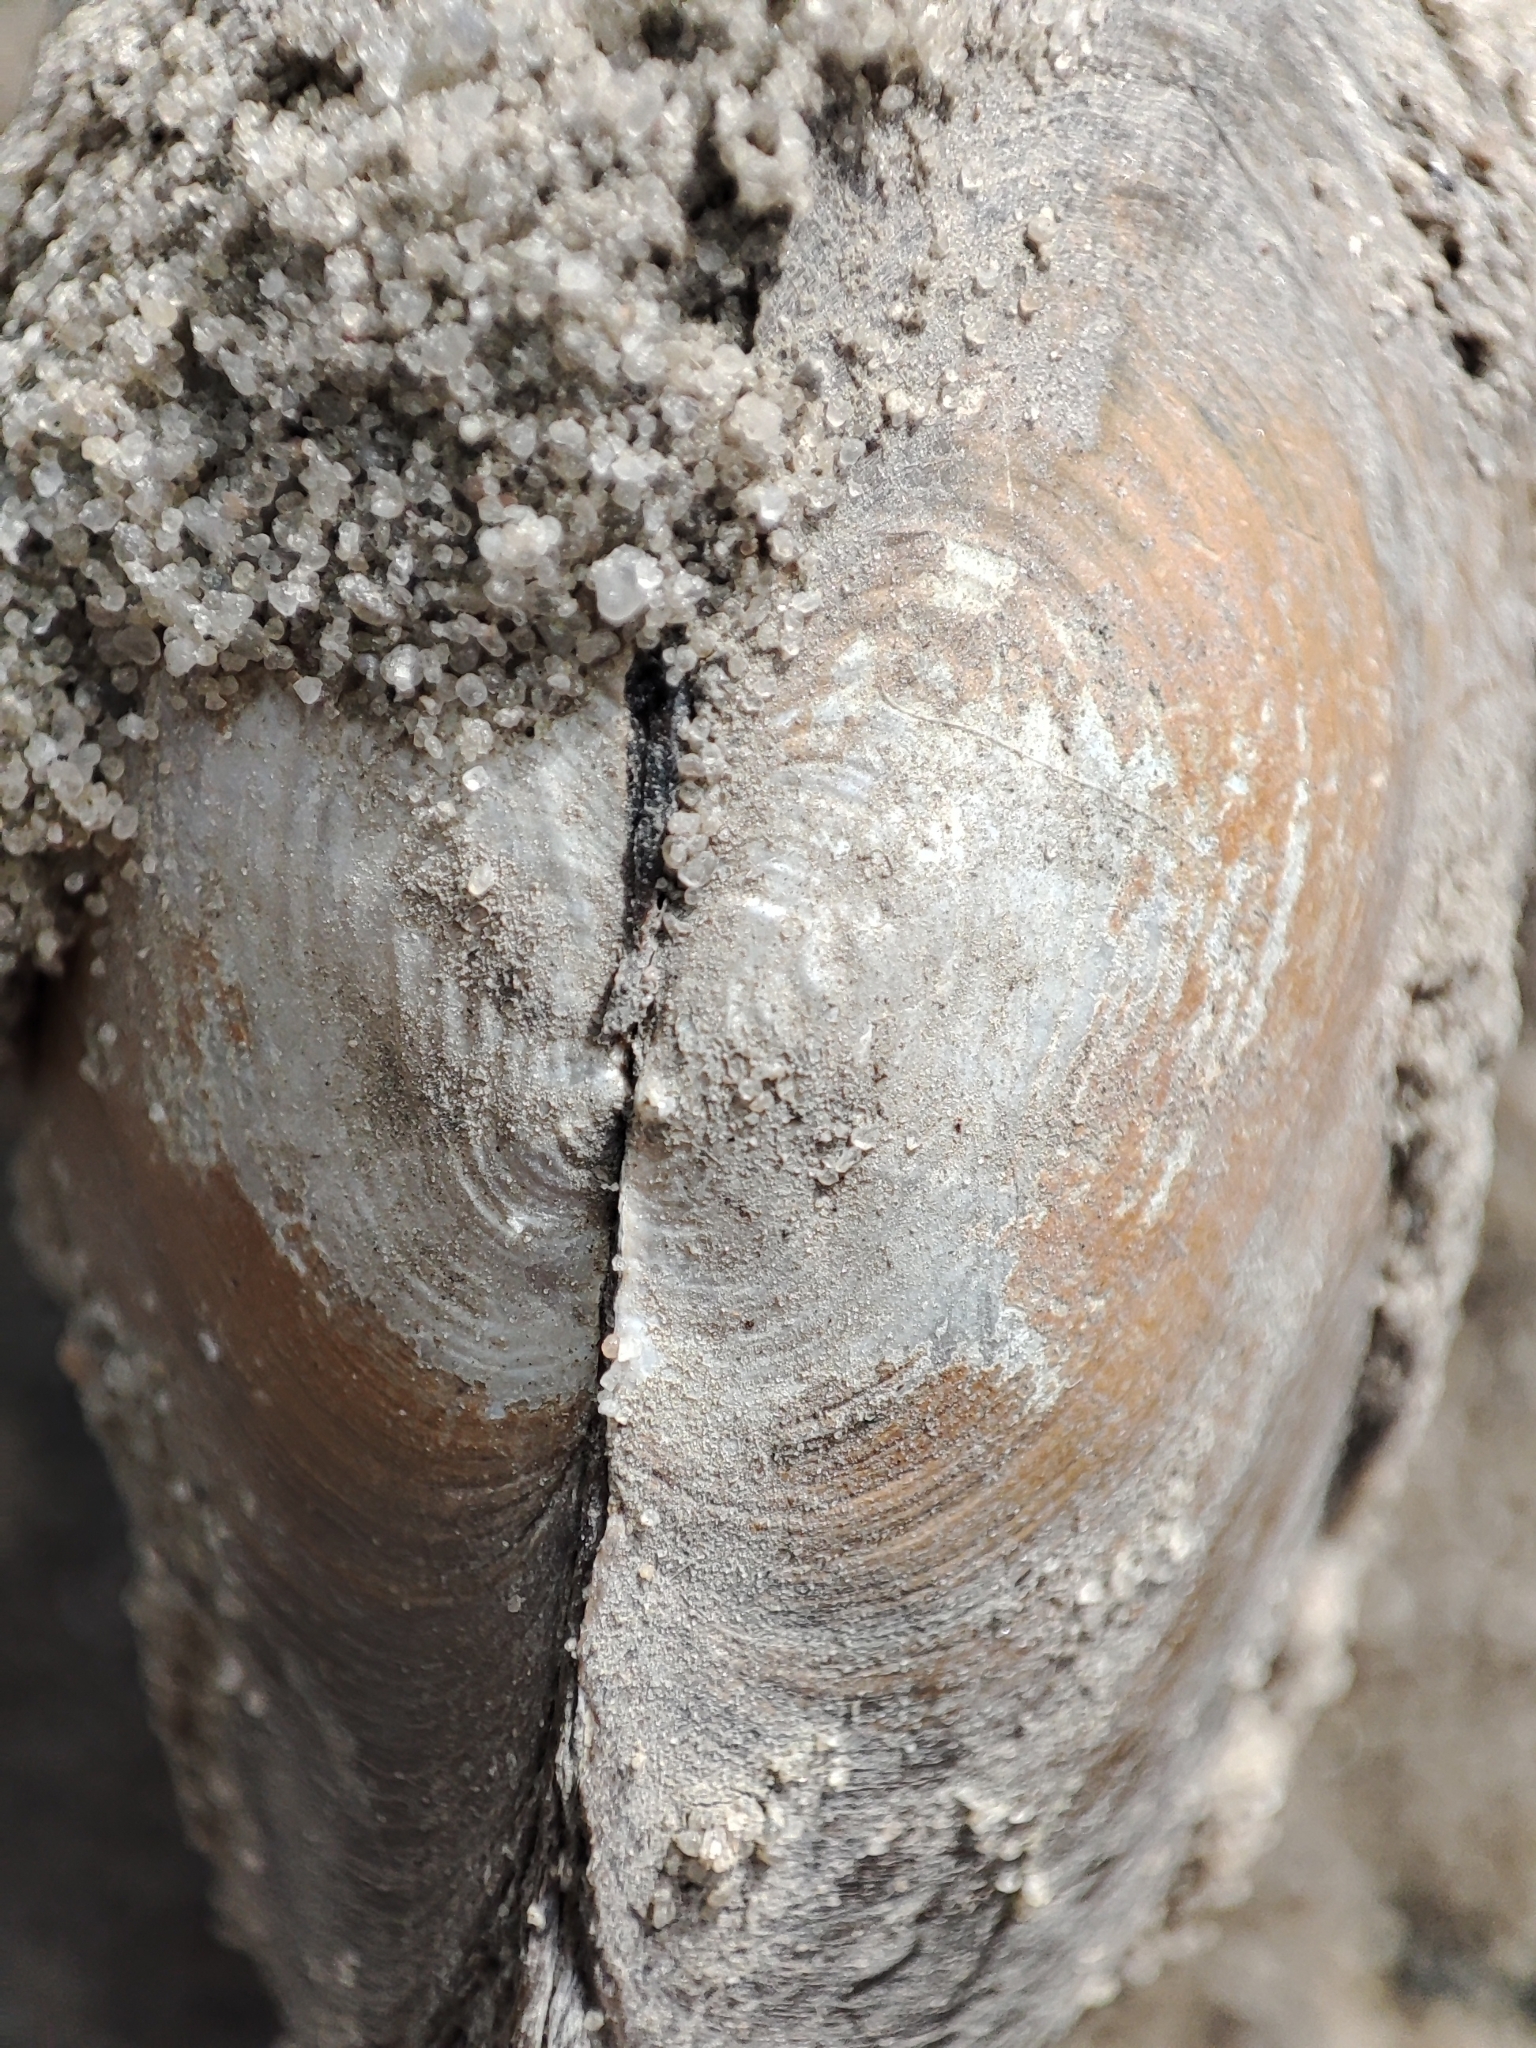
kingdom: Animalia
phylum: Mollusca
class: Bivalvia
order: Unionida
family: Unionidae
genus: Anodonta
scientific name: Anodonta anatina
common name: Duck mussel
